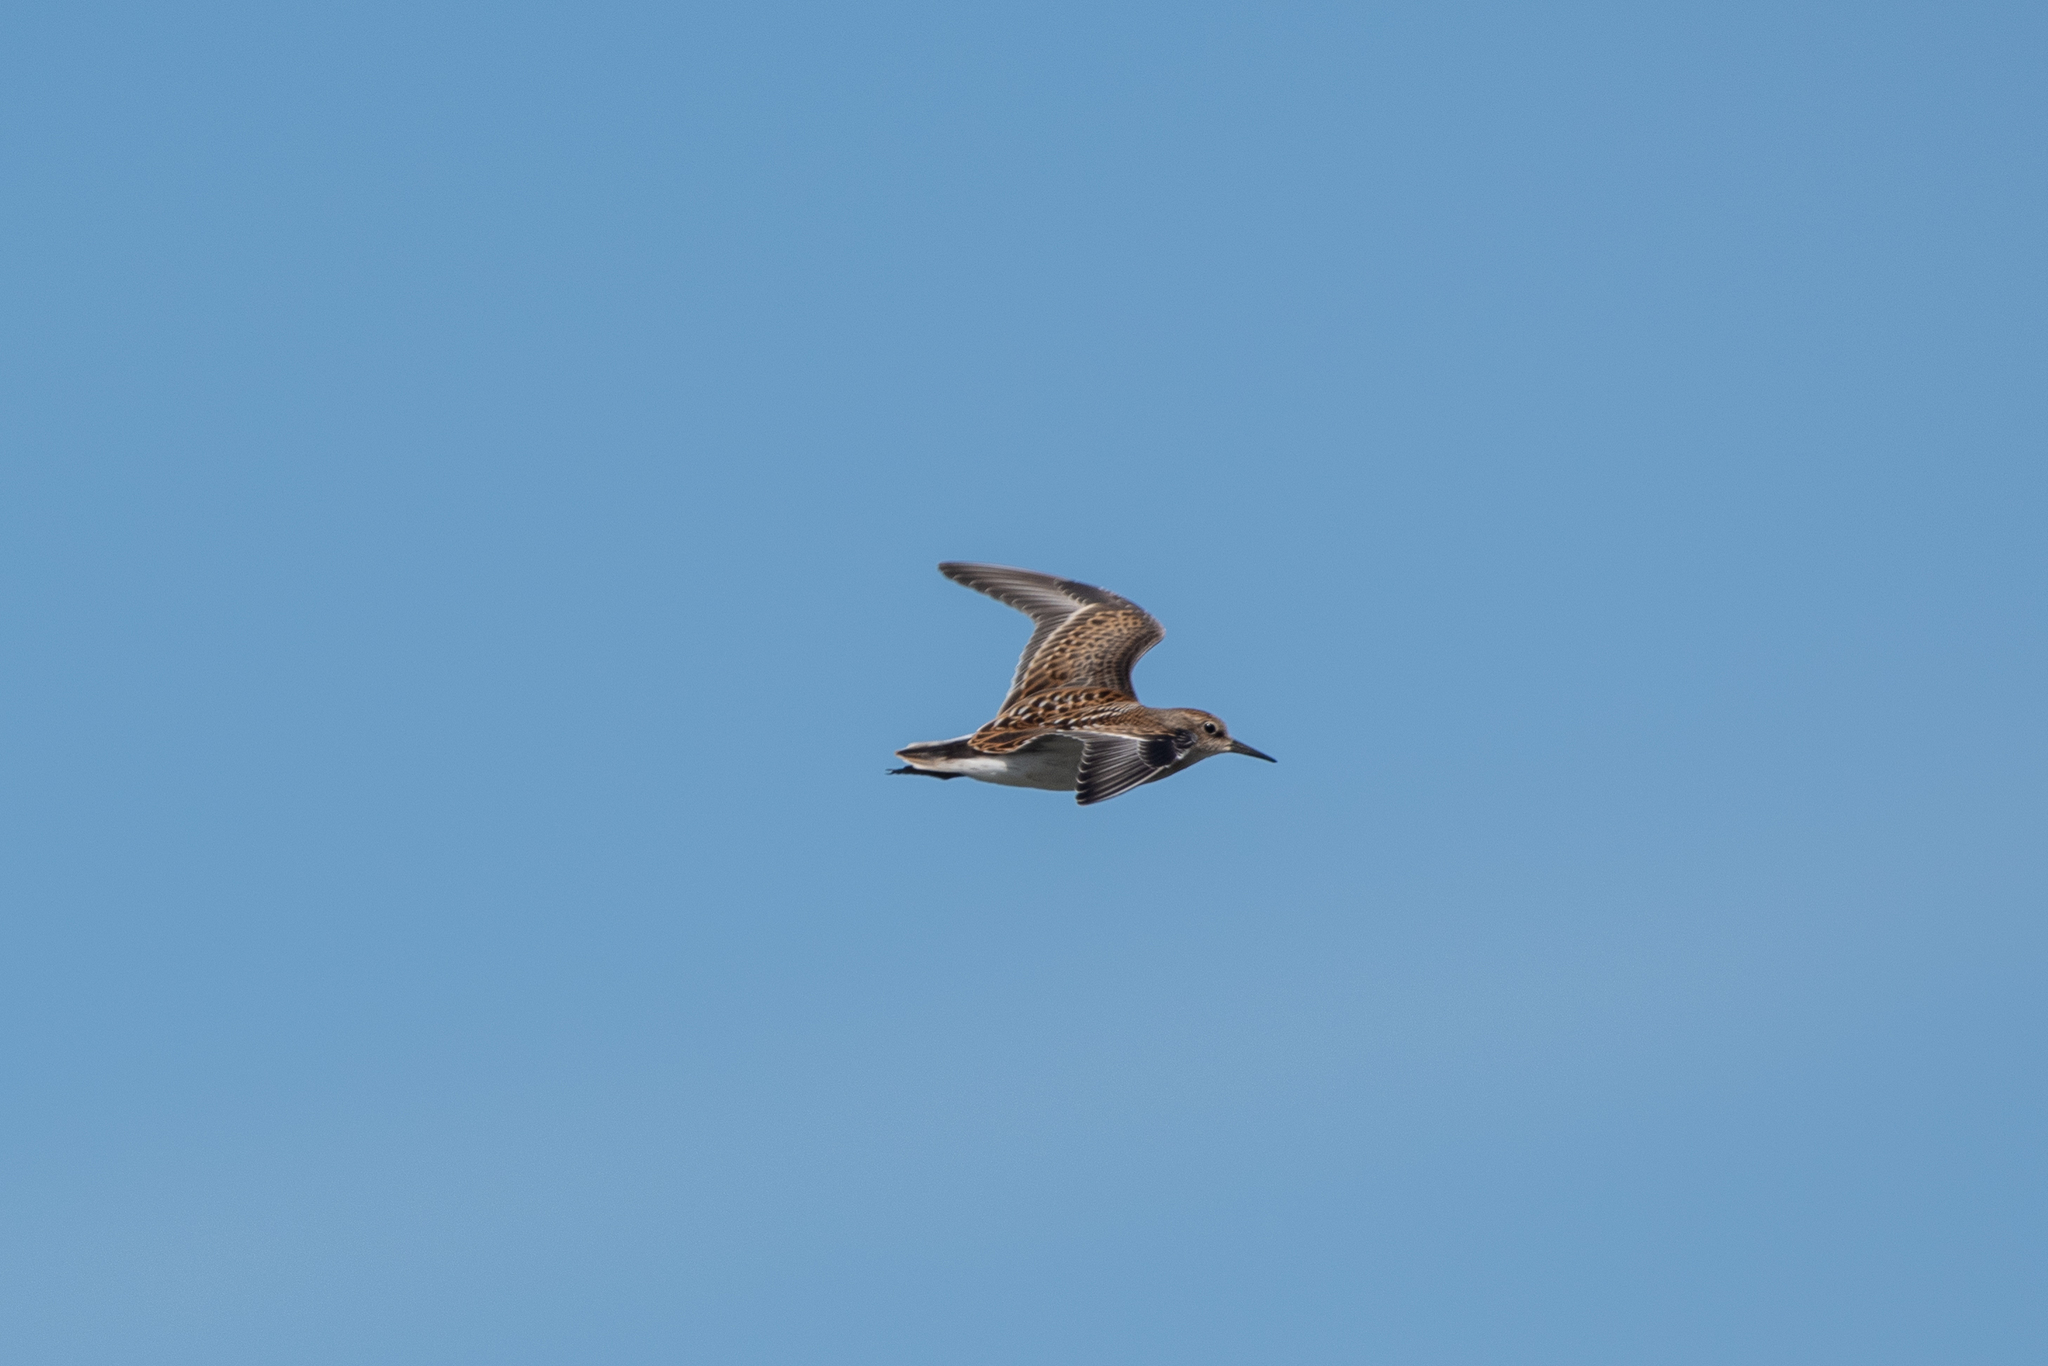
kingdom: Animalia
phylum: Chordata
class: Aves
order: Charadriiformes
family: Scolopacidae
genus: Calidris
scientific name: Calidris minutilla
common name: Least sandpiper
